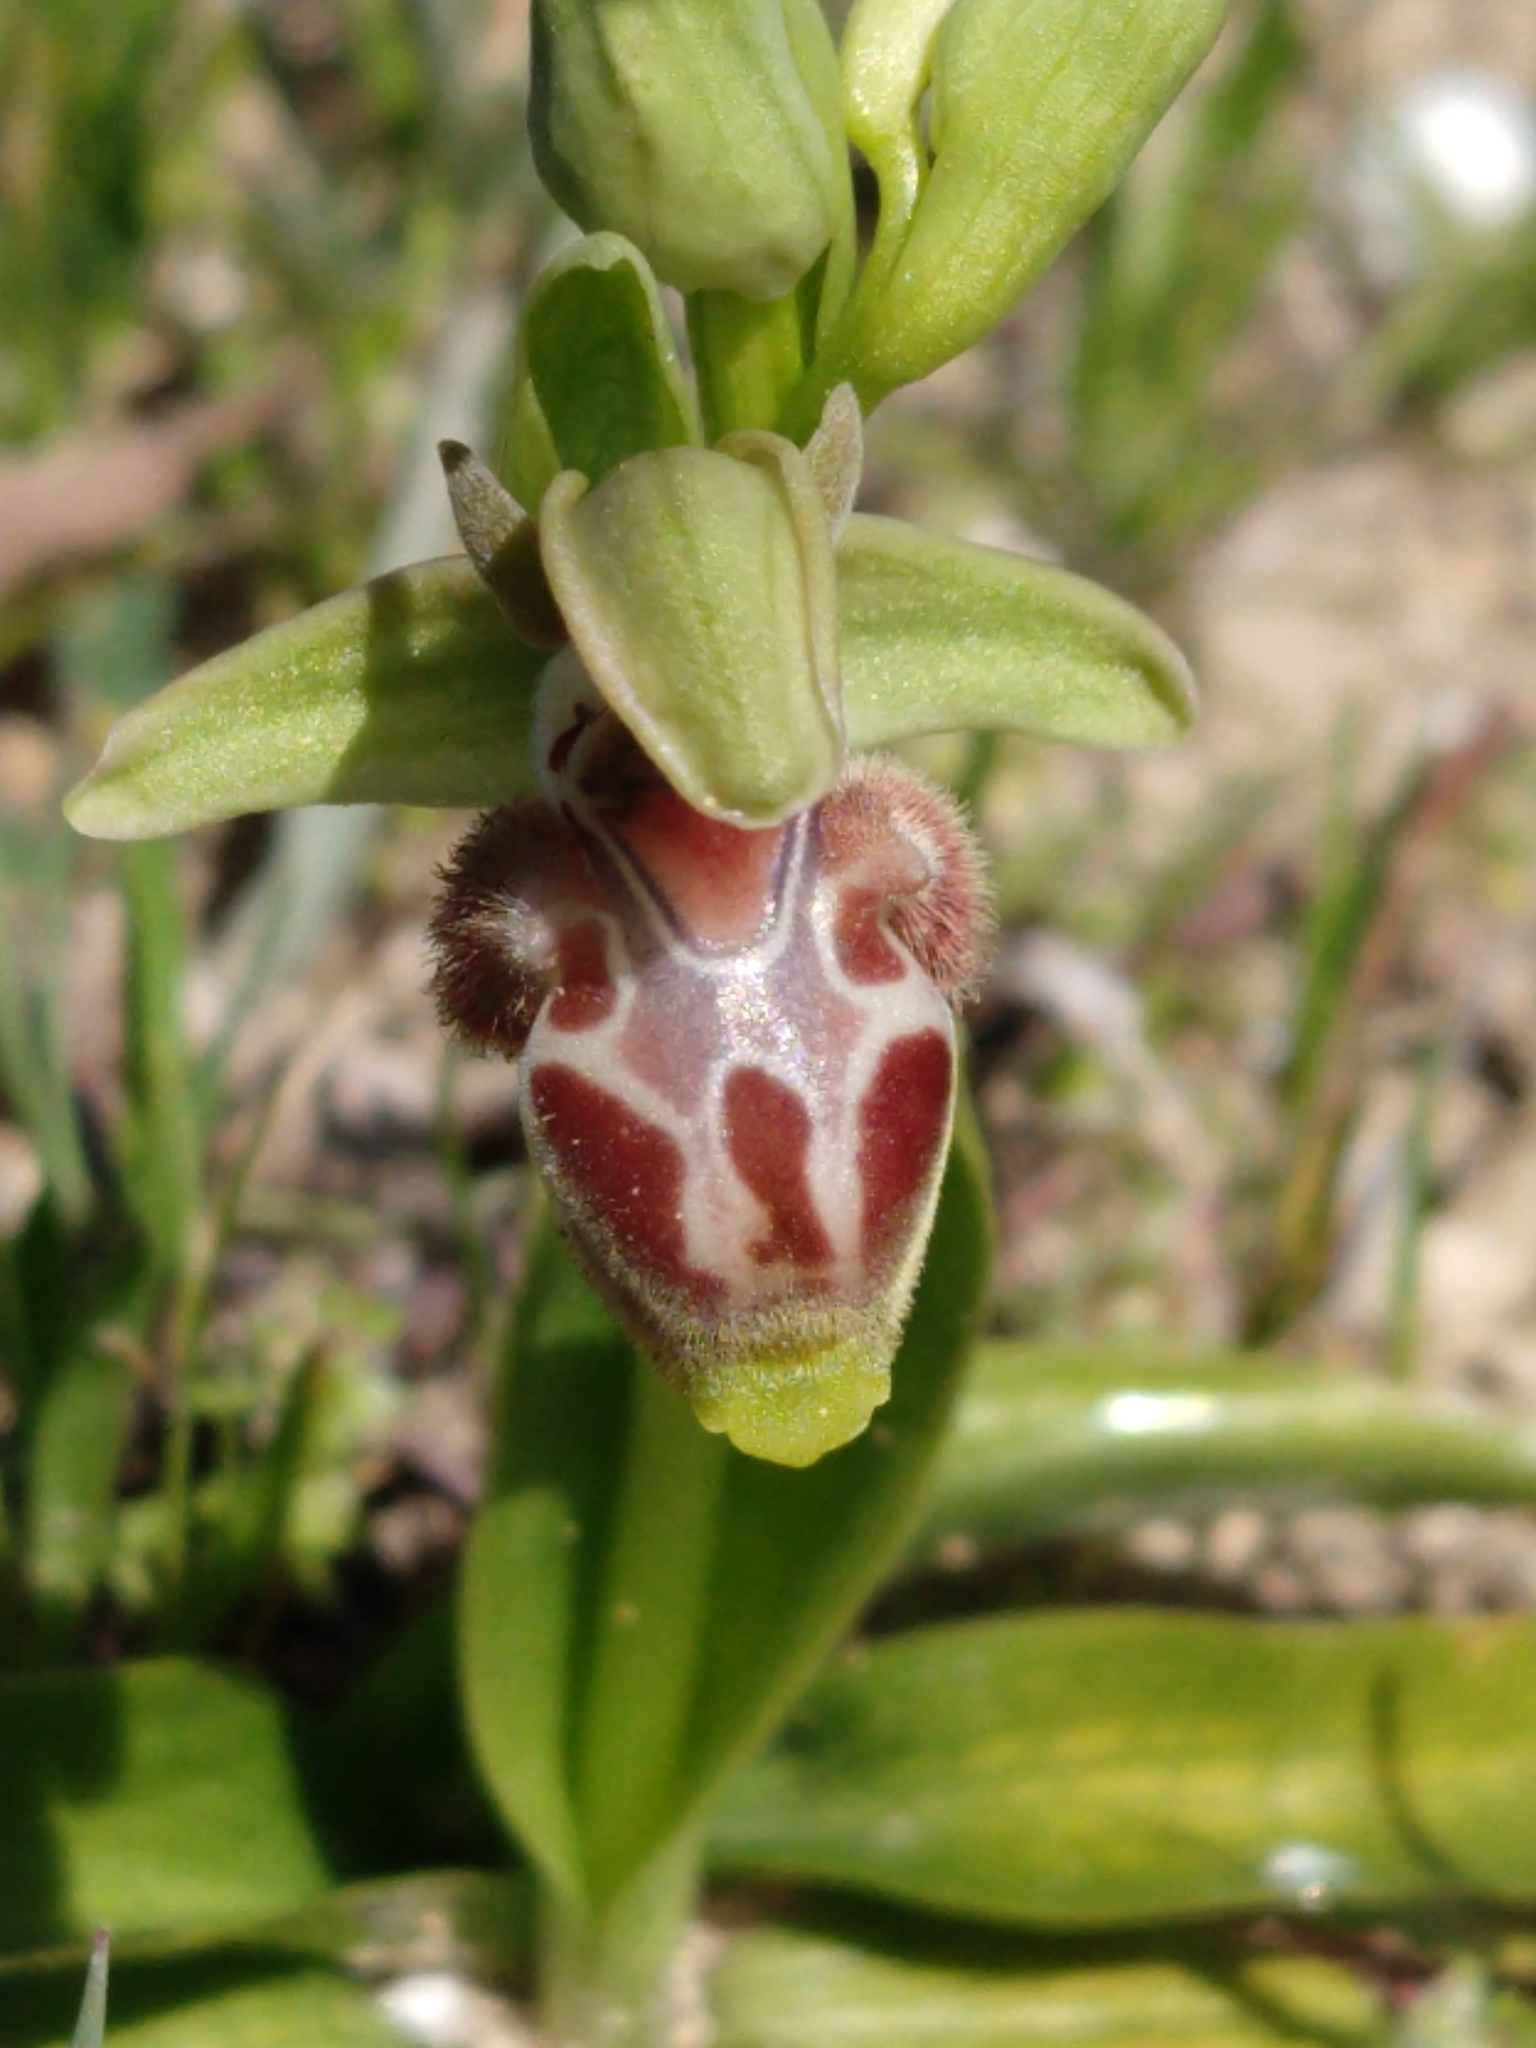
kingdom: Plantae
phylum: Tracheophyta
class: Liliopsida
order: Asparagales
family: Orchidaceae
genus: Ophrys
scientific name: Ophrys umbilicata
